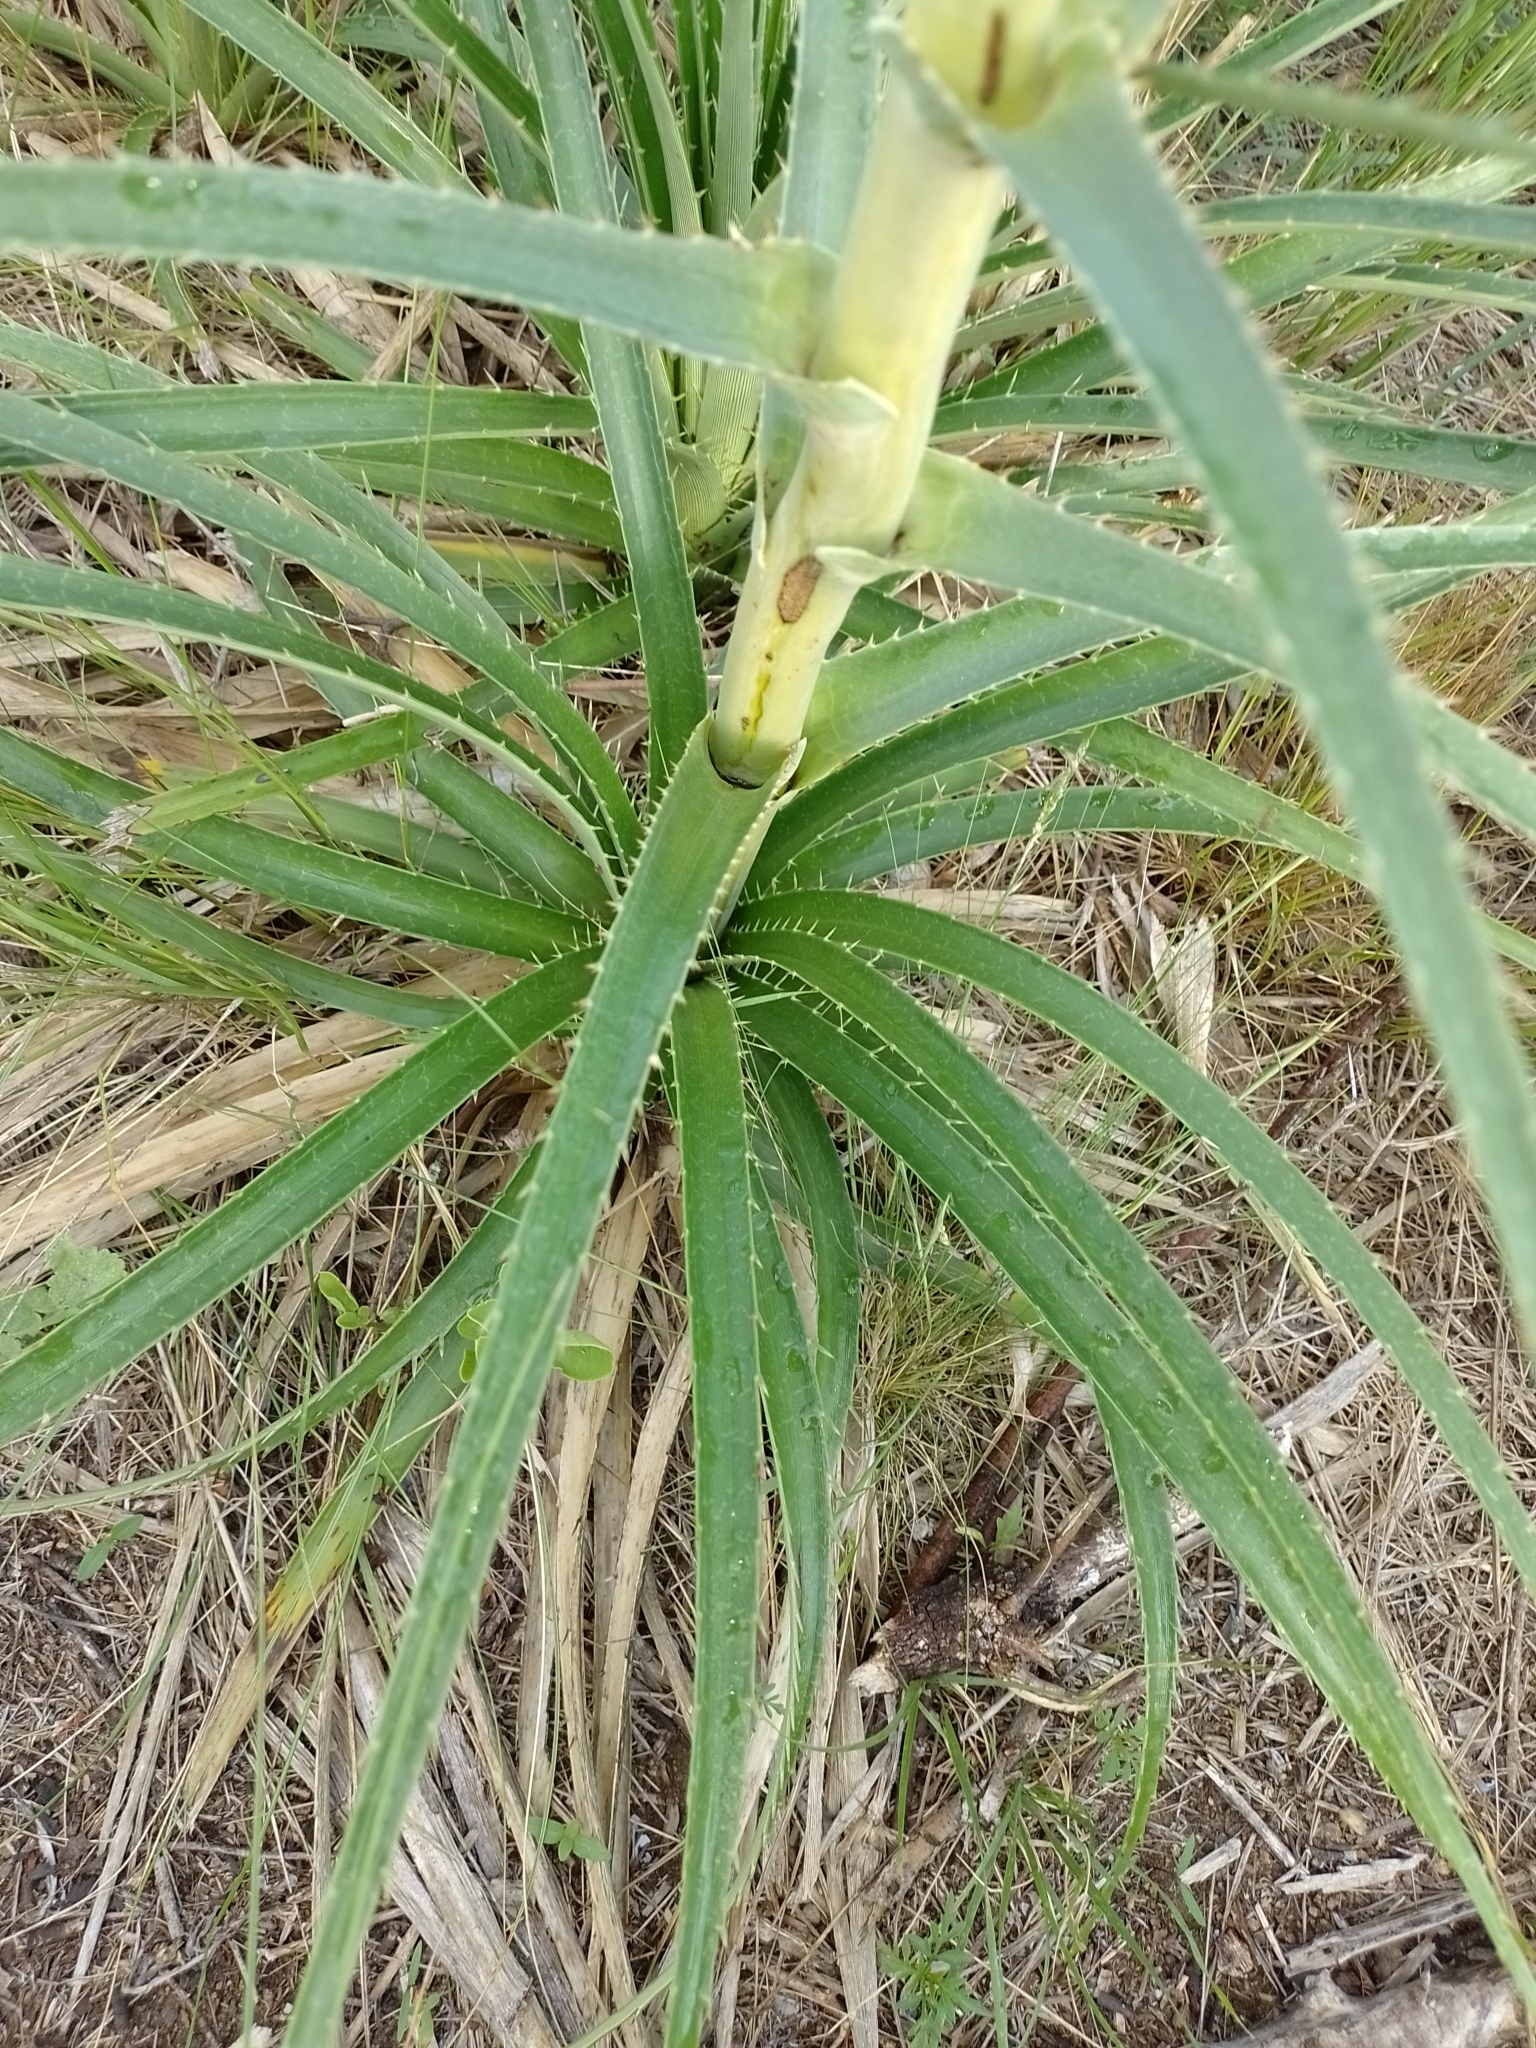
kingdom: Plantae
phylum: Tracheophyta
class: Magnoliopsida
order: Apiales
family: Apiaceae
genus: Eryngium
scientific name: Eryngium horridum
